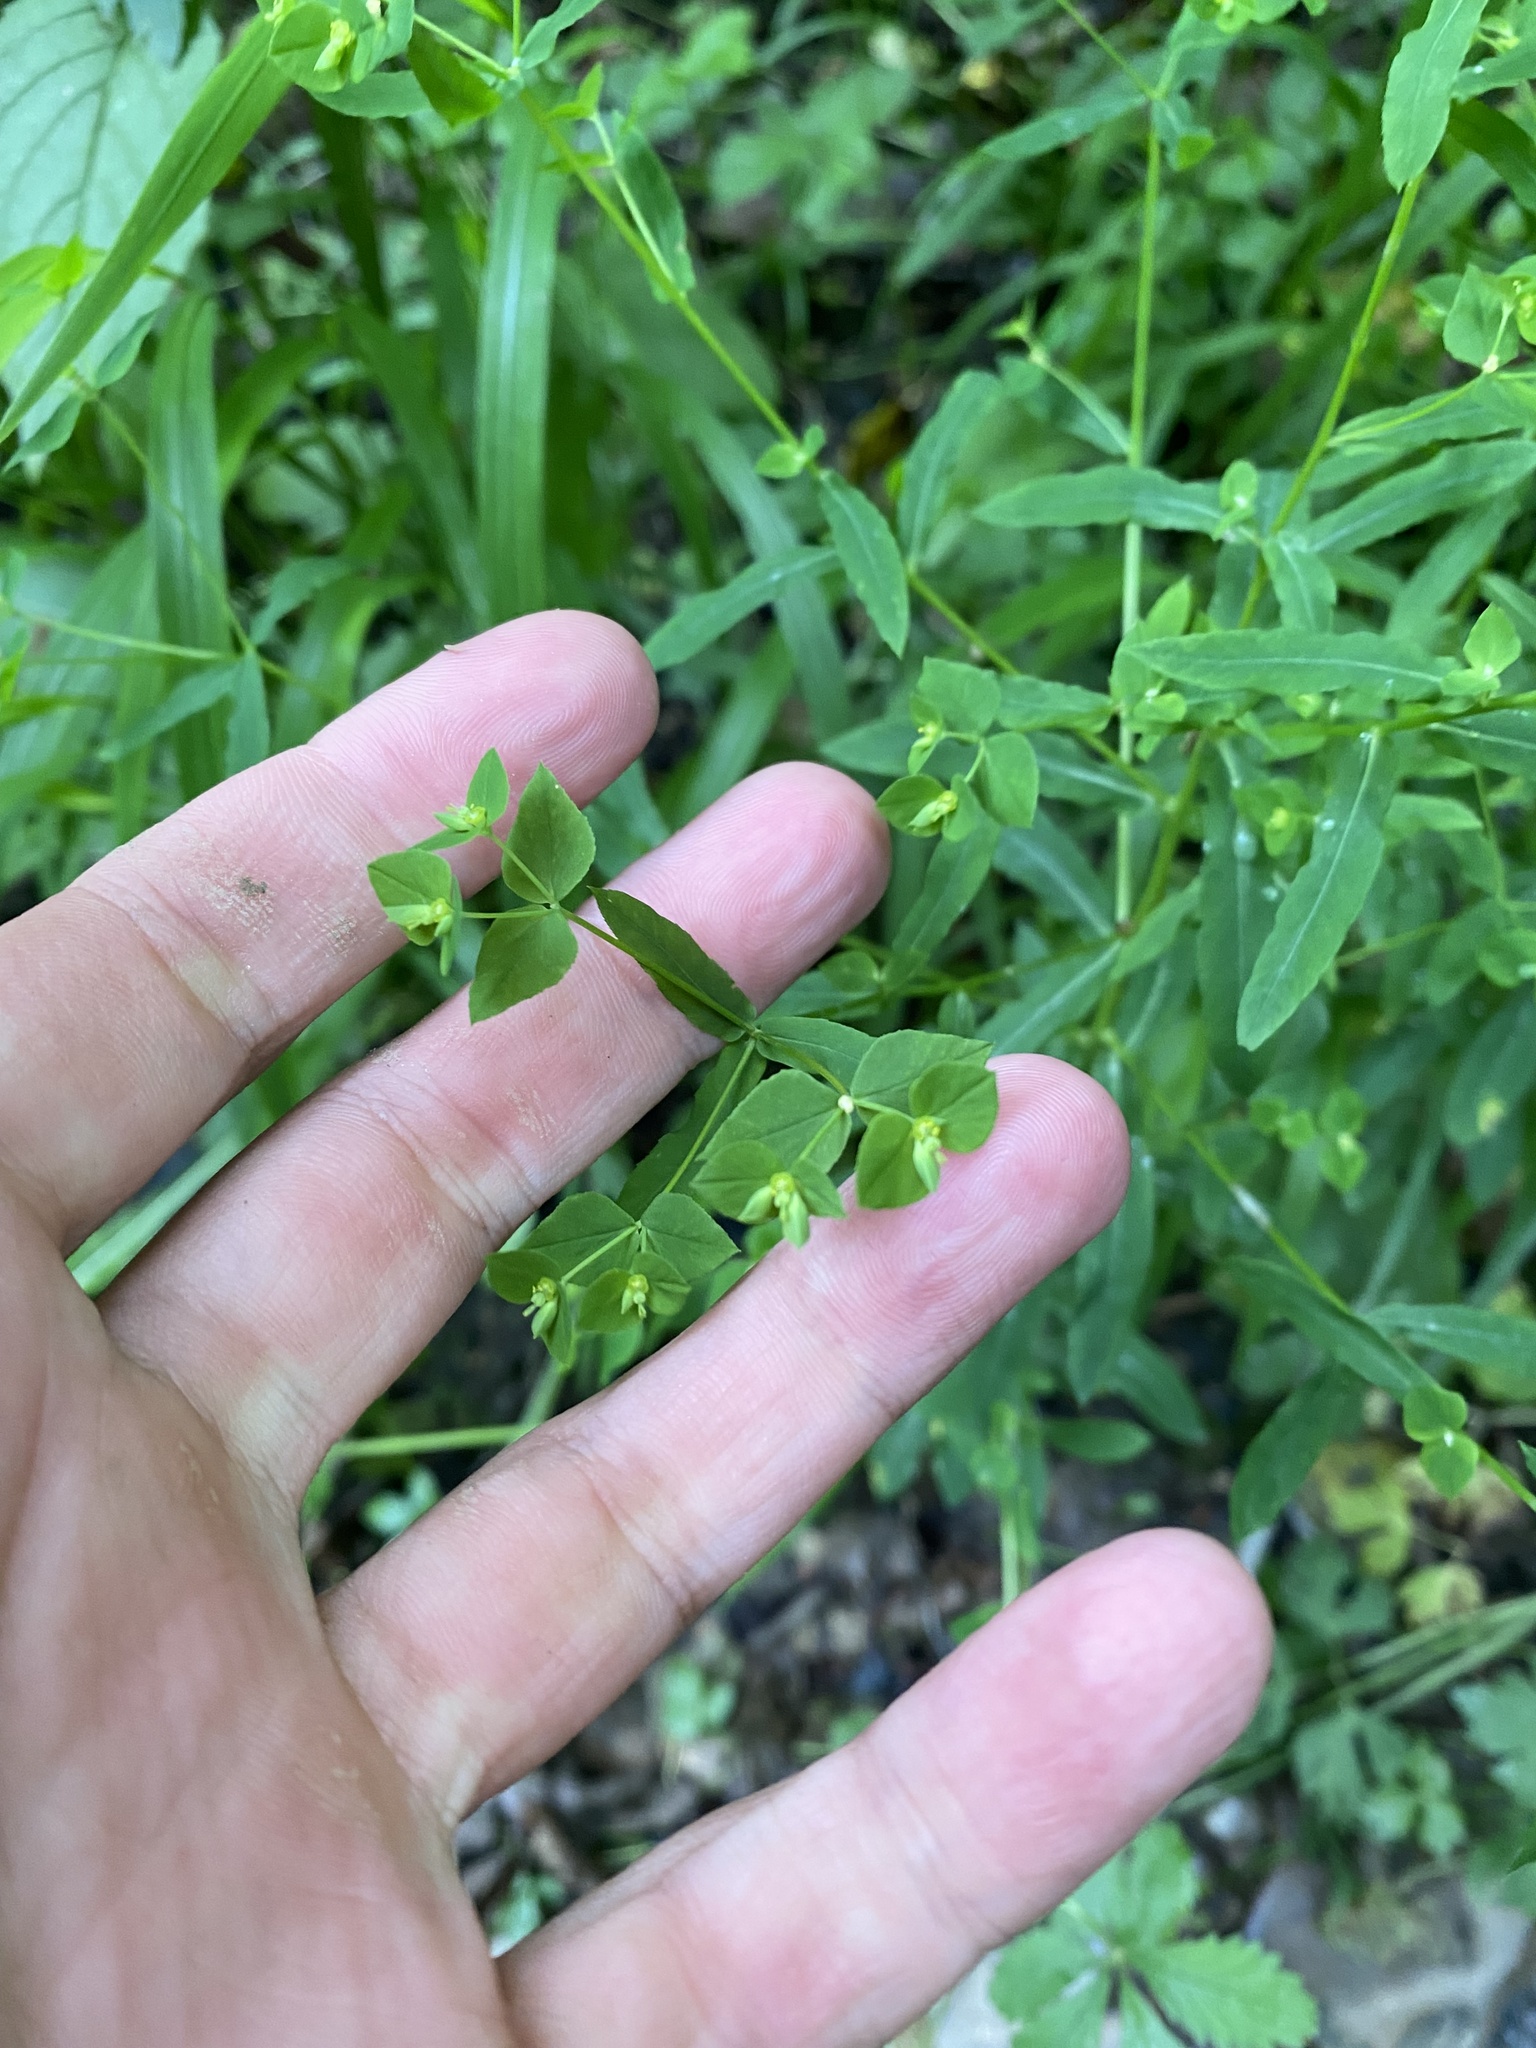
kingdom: Plantae
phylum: Tracheophyta
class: Magnoliopsida
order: Malpighiales
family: Euphorbiaceae
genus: Euphorbia
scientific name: Euphorbia stricta
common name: Upright spurge
